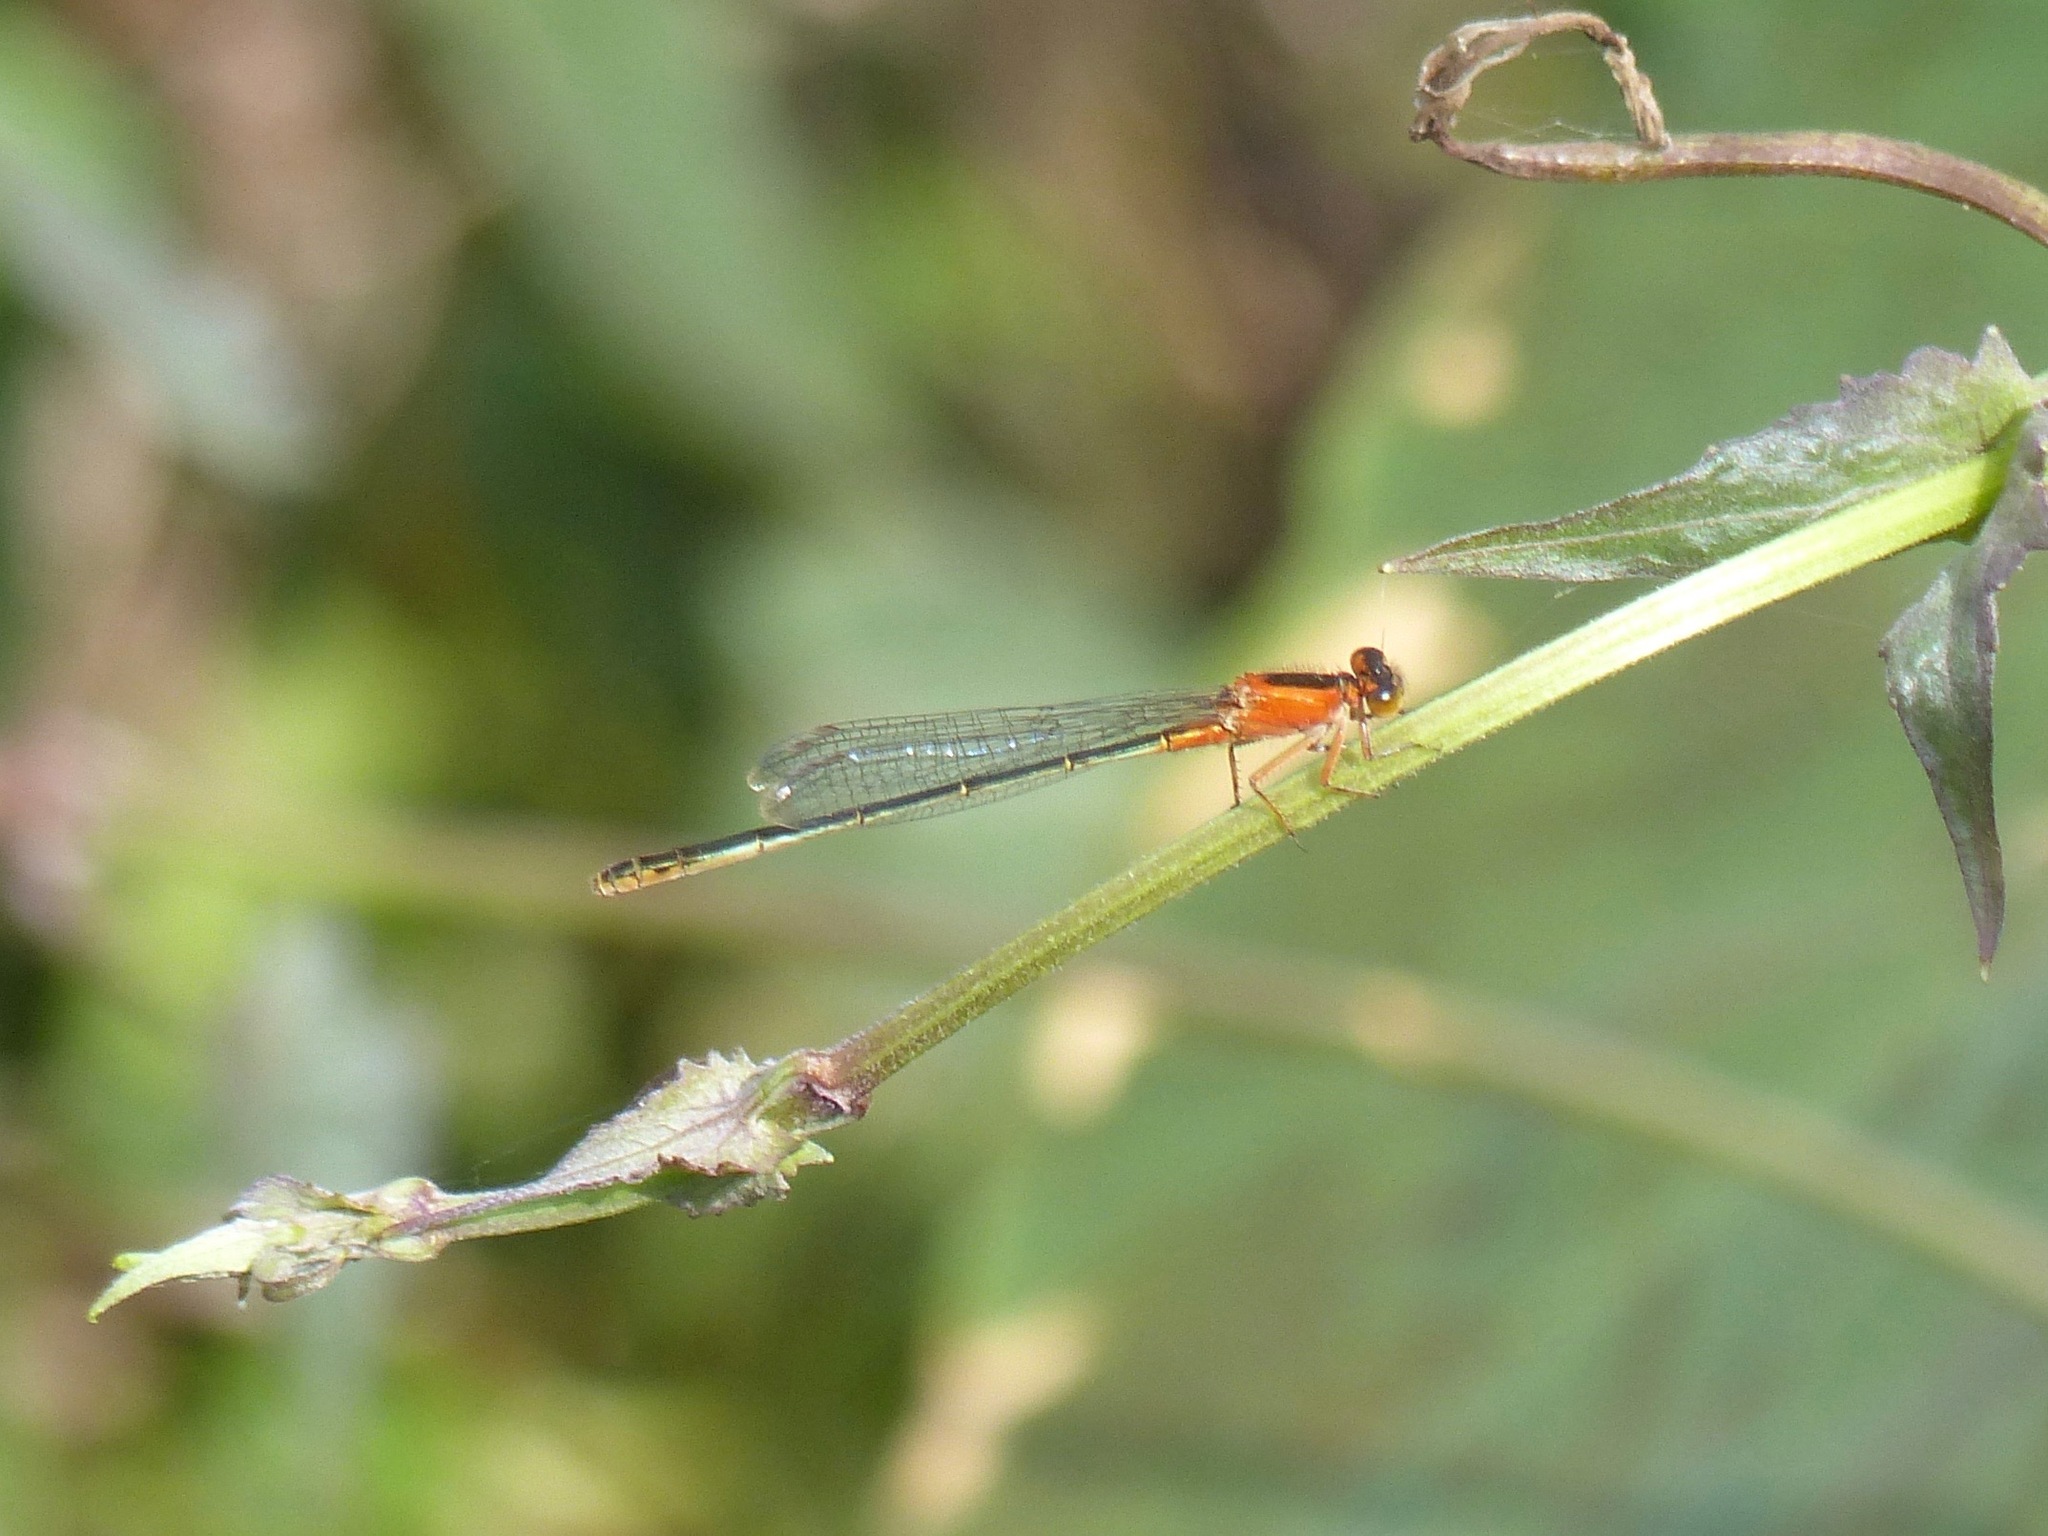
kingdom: Animalia
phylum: Arthropoda
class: Insecta
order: Odonata
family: Coenagrionidae
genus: Ischnura
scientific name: Ischnura ramburii
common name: Rambur's forktail
